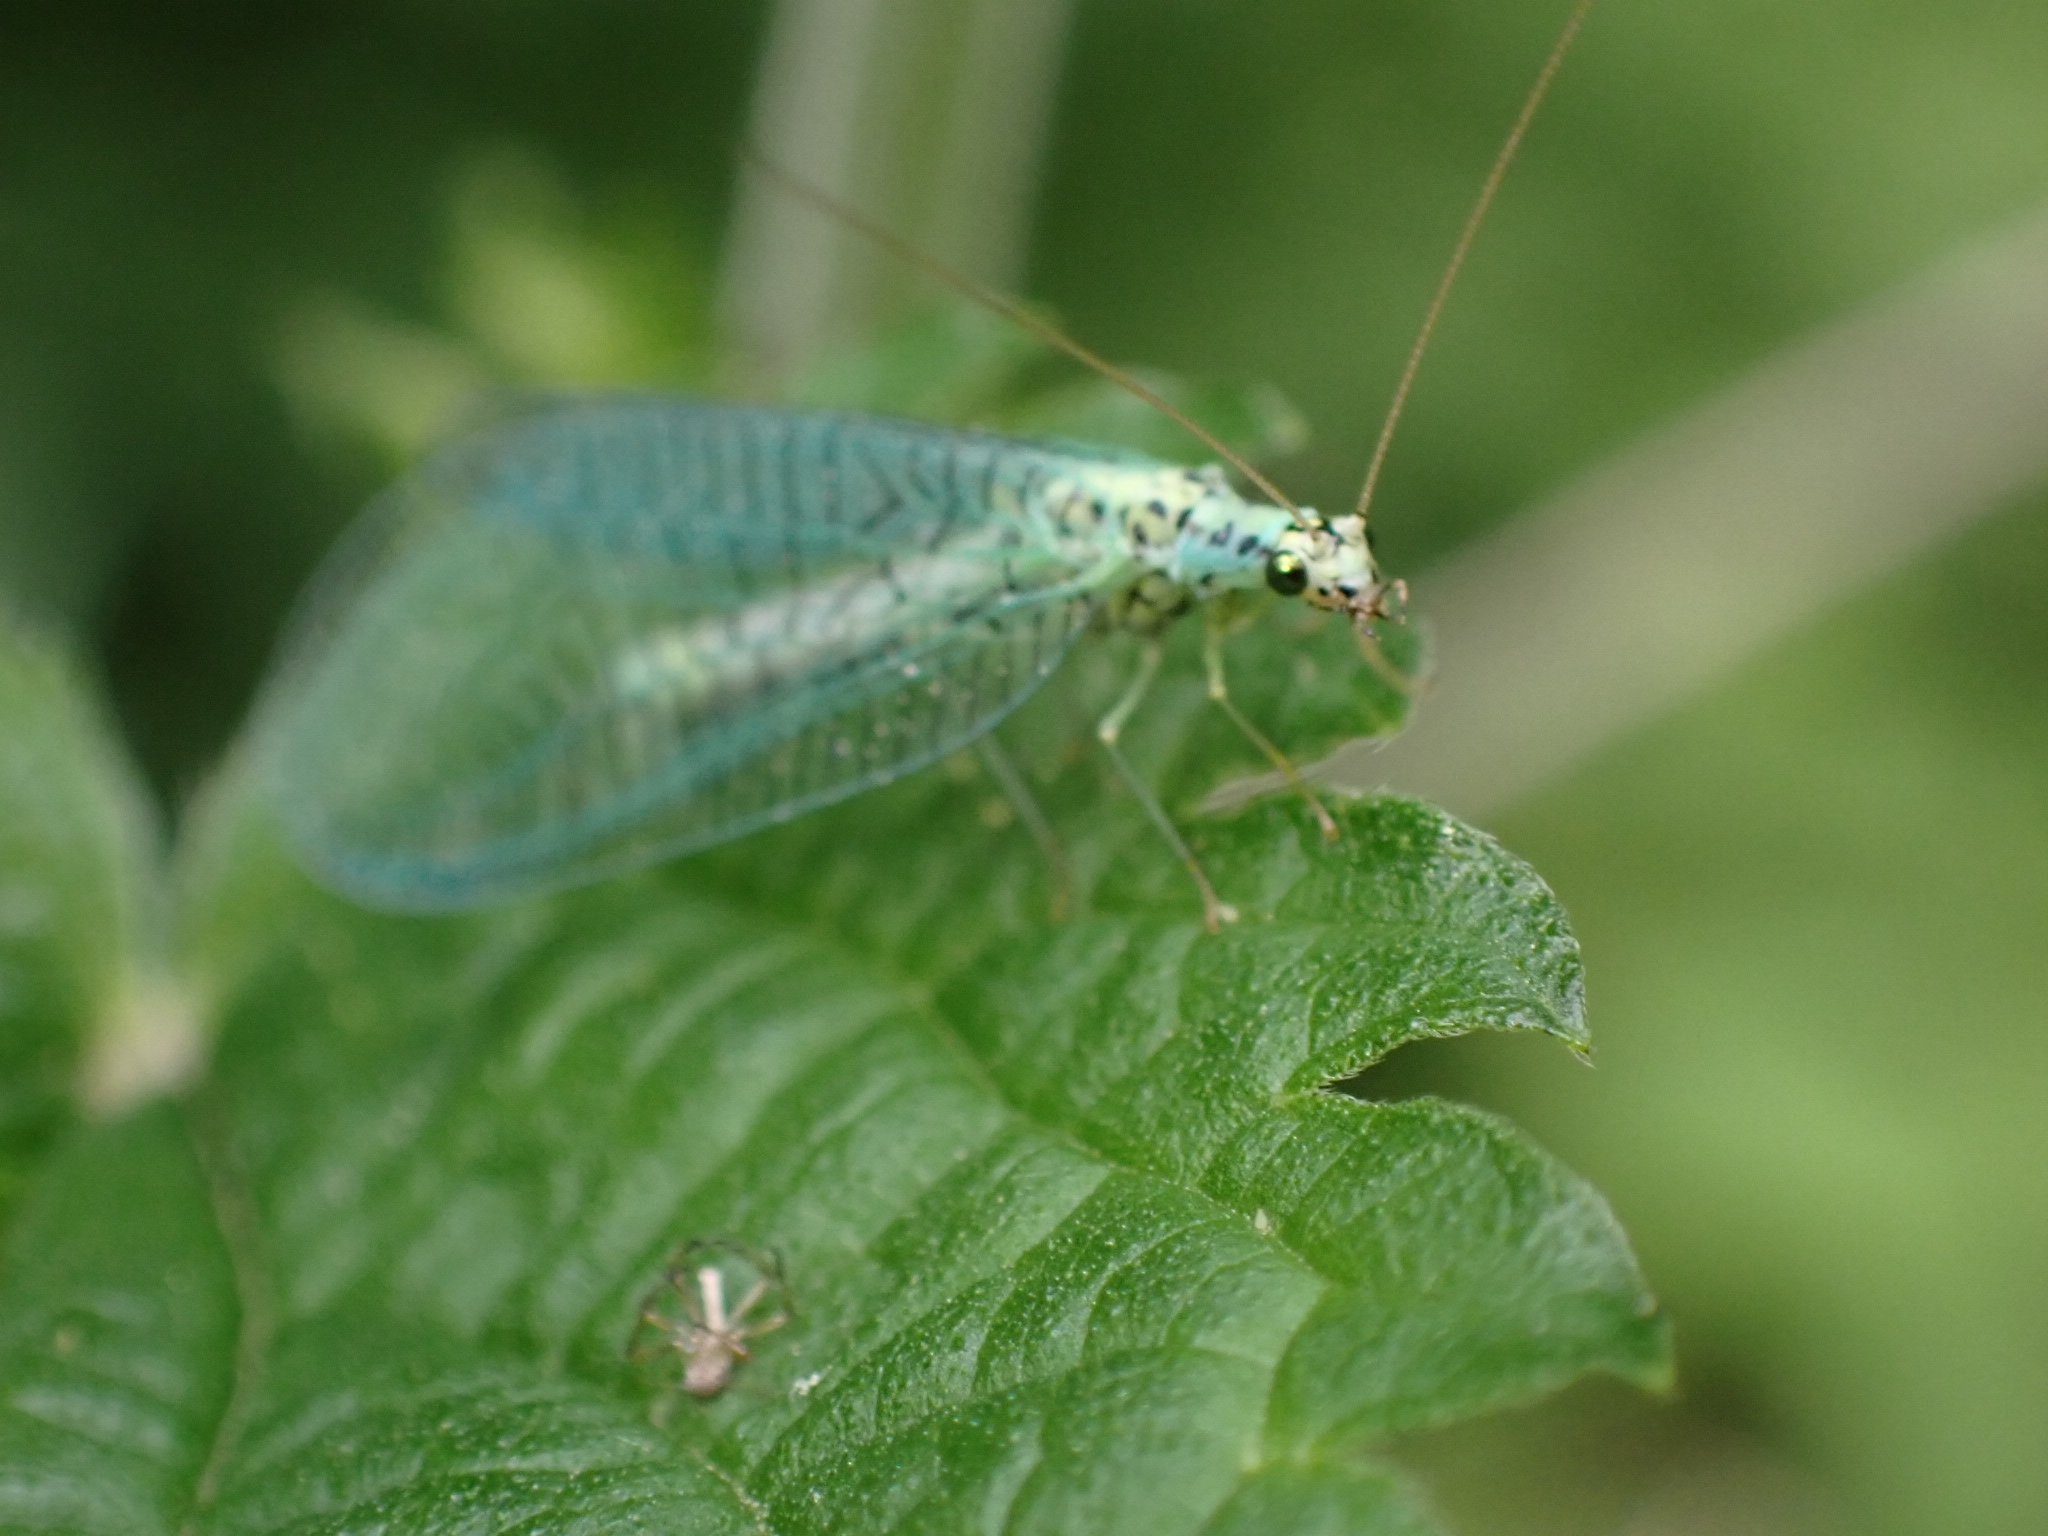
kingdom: Animalia
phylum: Arthropoda
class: Insecta
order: Neuroptera
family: Chrysopidae
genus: Chrysopa
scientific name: Chrysopa perla
